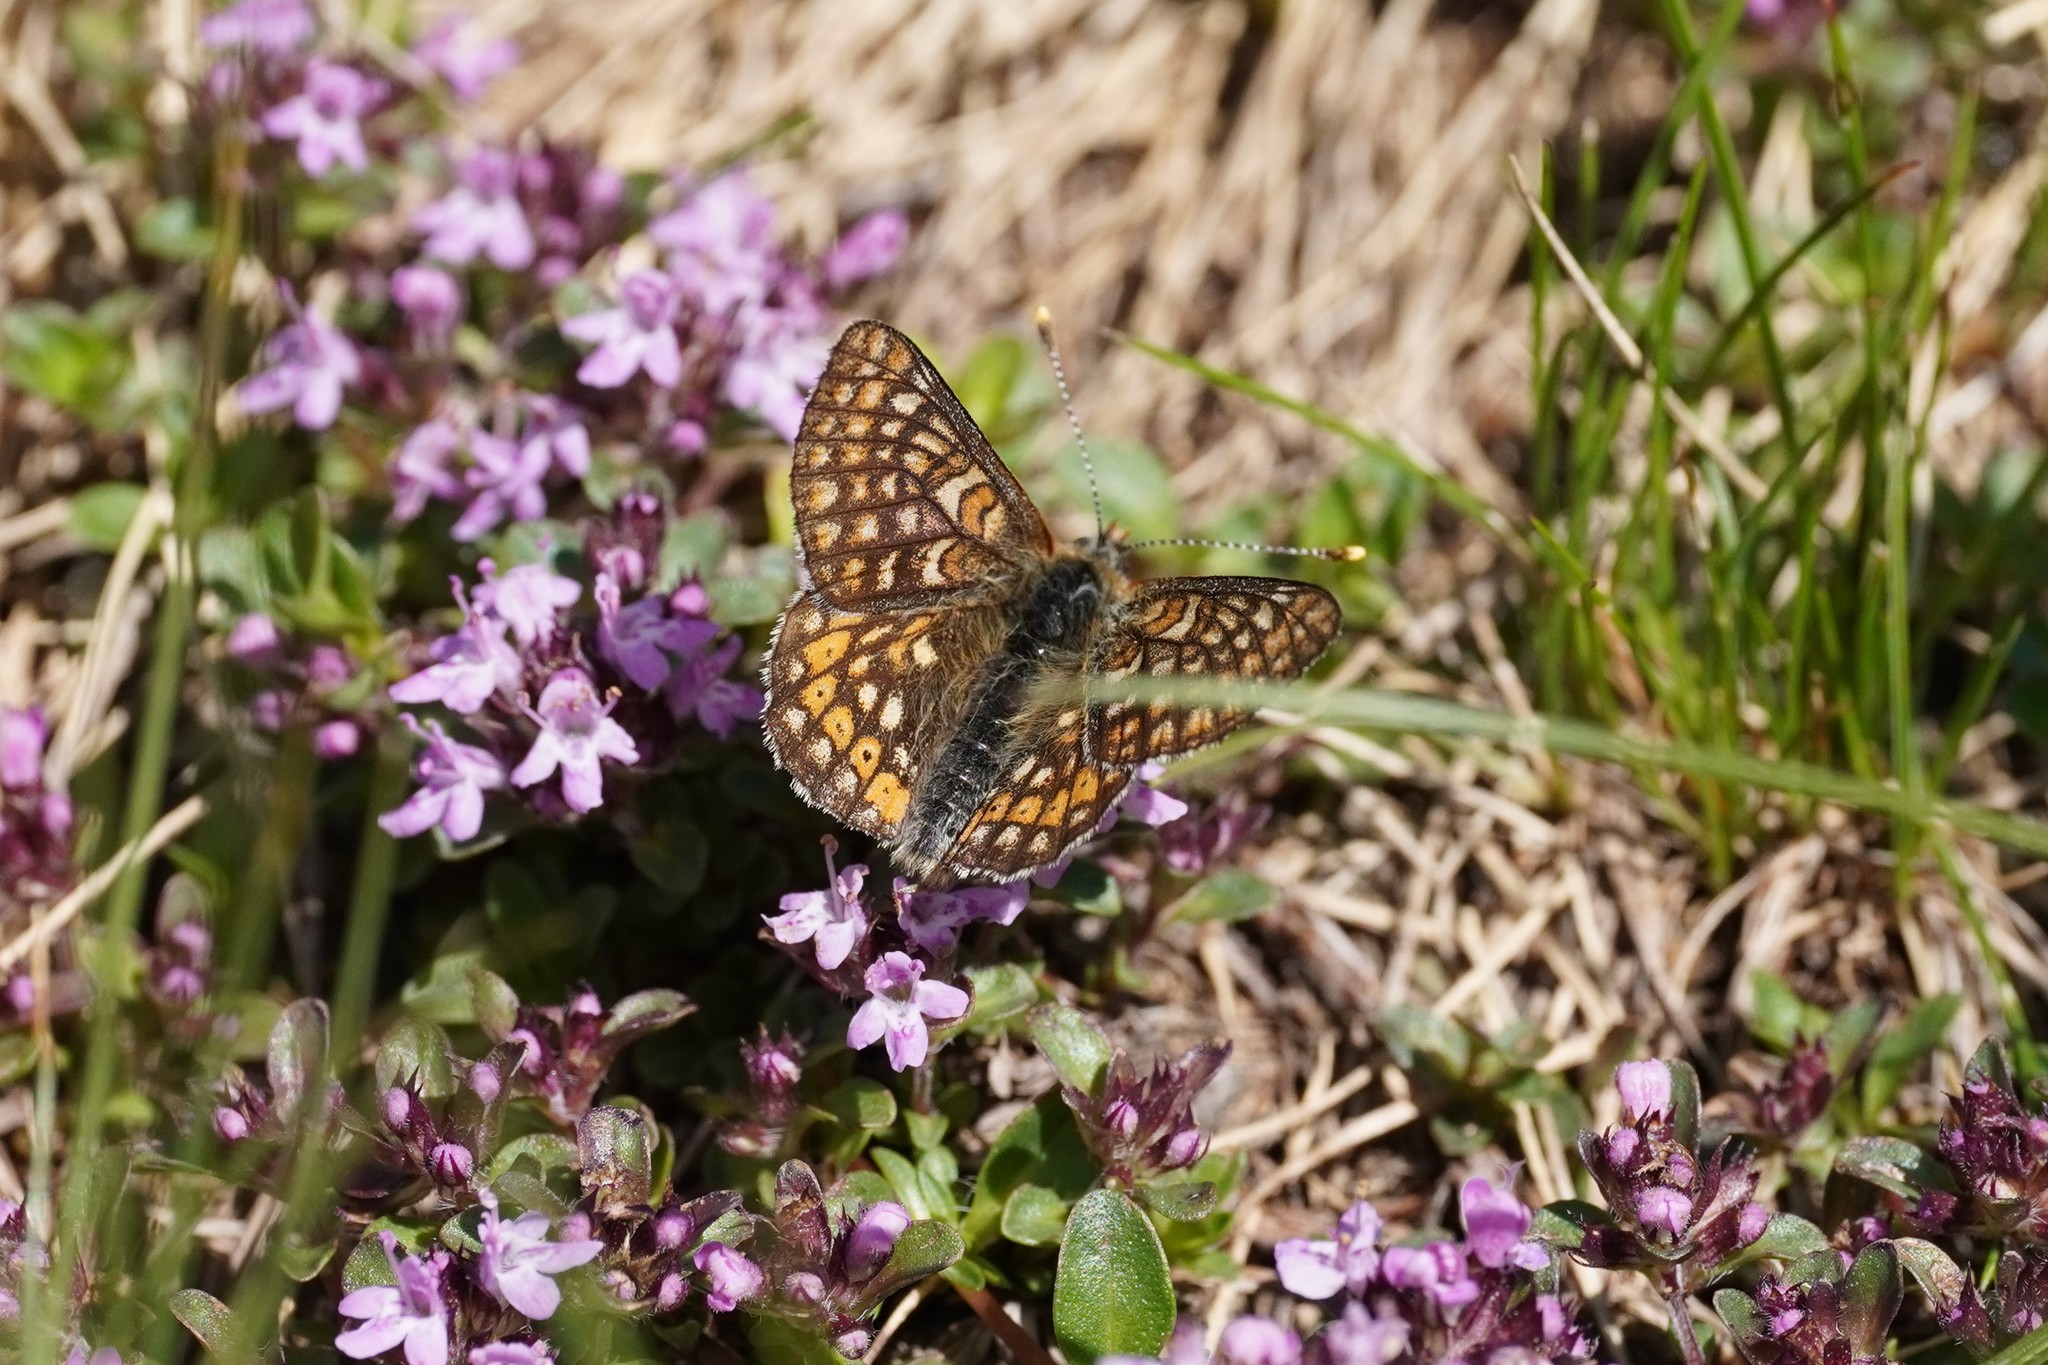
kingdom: Animalia
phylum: Arthropoda
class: Insecta
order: Lepidoptera
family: Nymphalidae
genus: Euphydryas
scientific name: Euphydryas aurinia
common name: Marsh fritillary
